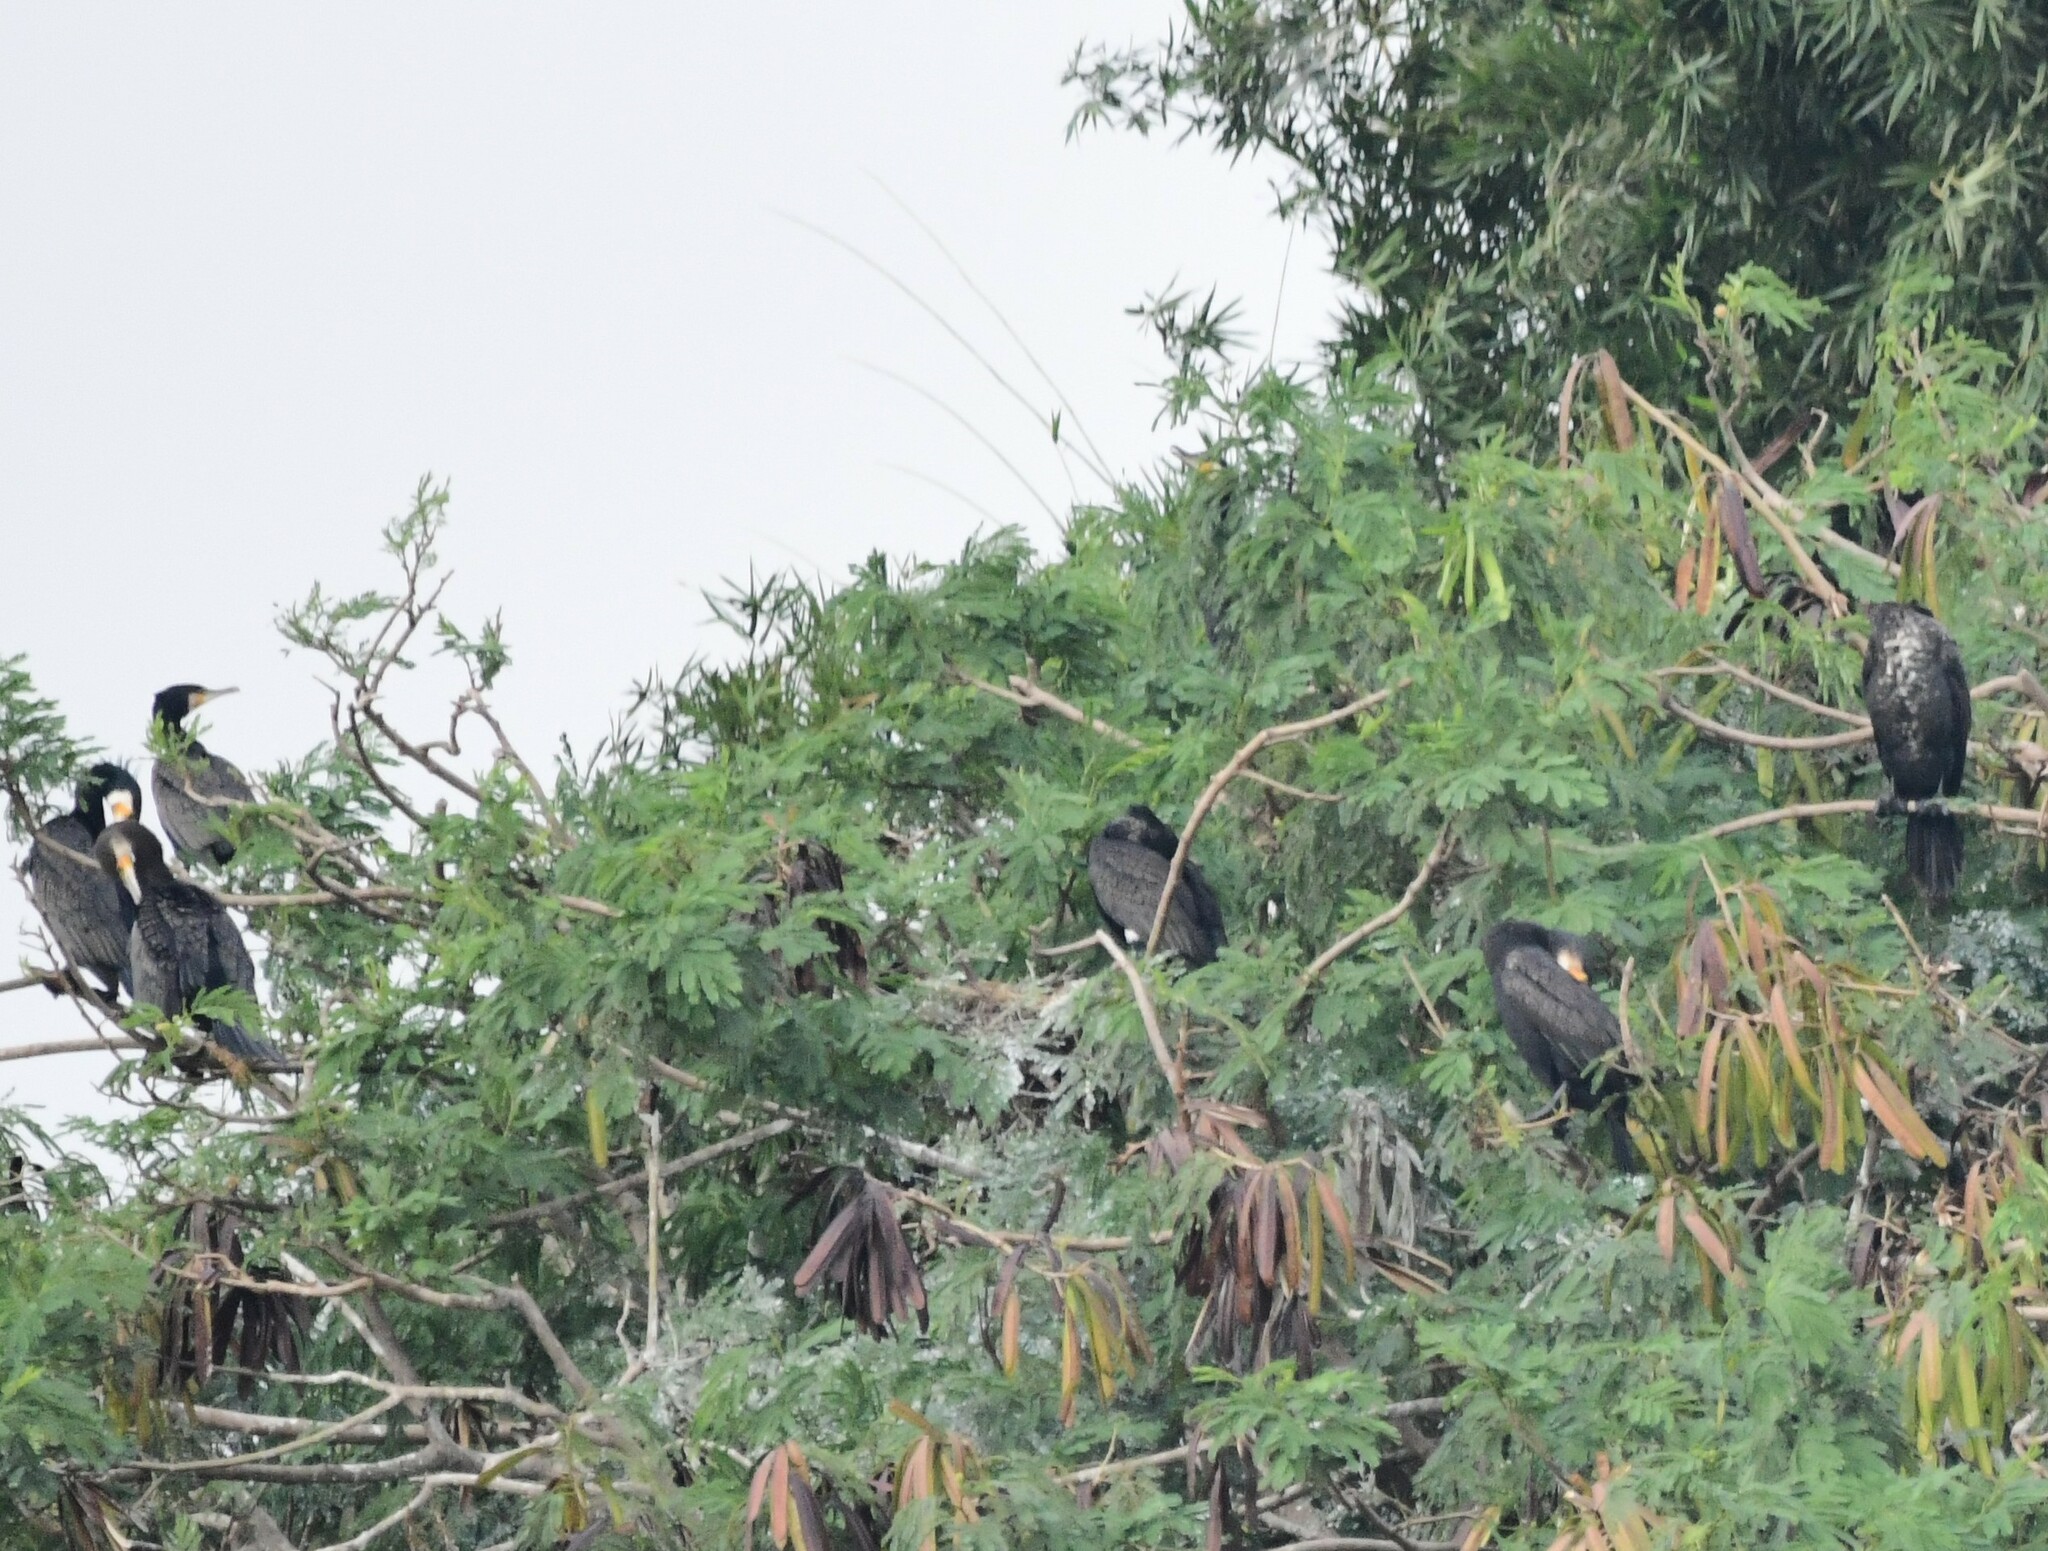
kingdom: Animalia
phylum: Chordata
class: Aves
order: Suliformes
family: Phalacrocoracidae
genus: Phalacrocorax
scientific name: Phalacrocorax carbo
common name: Great cormorant
